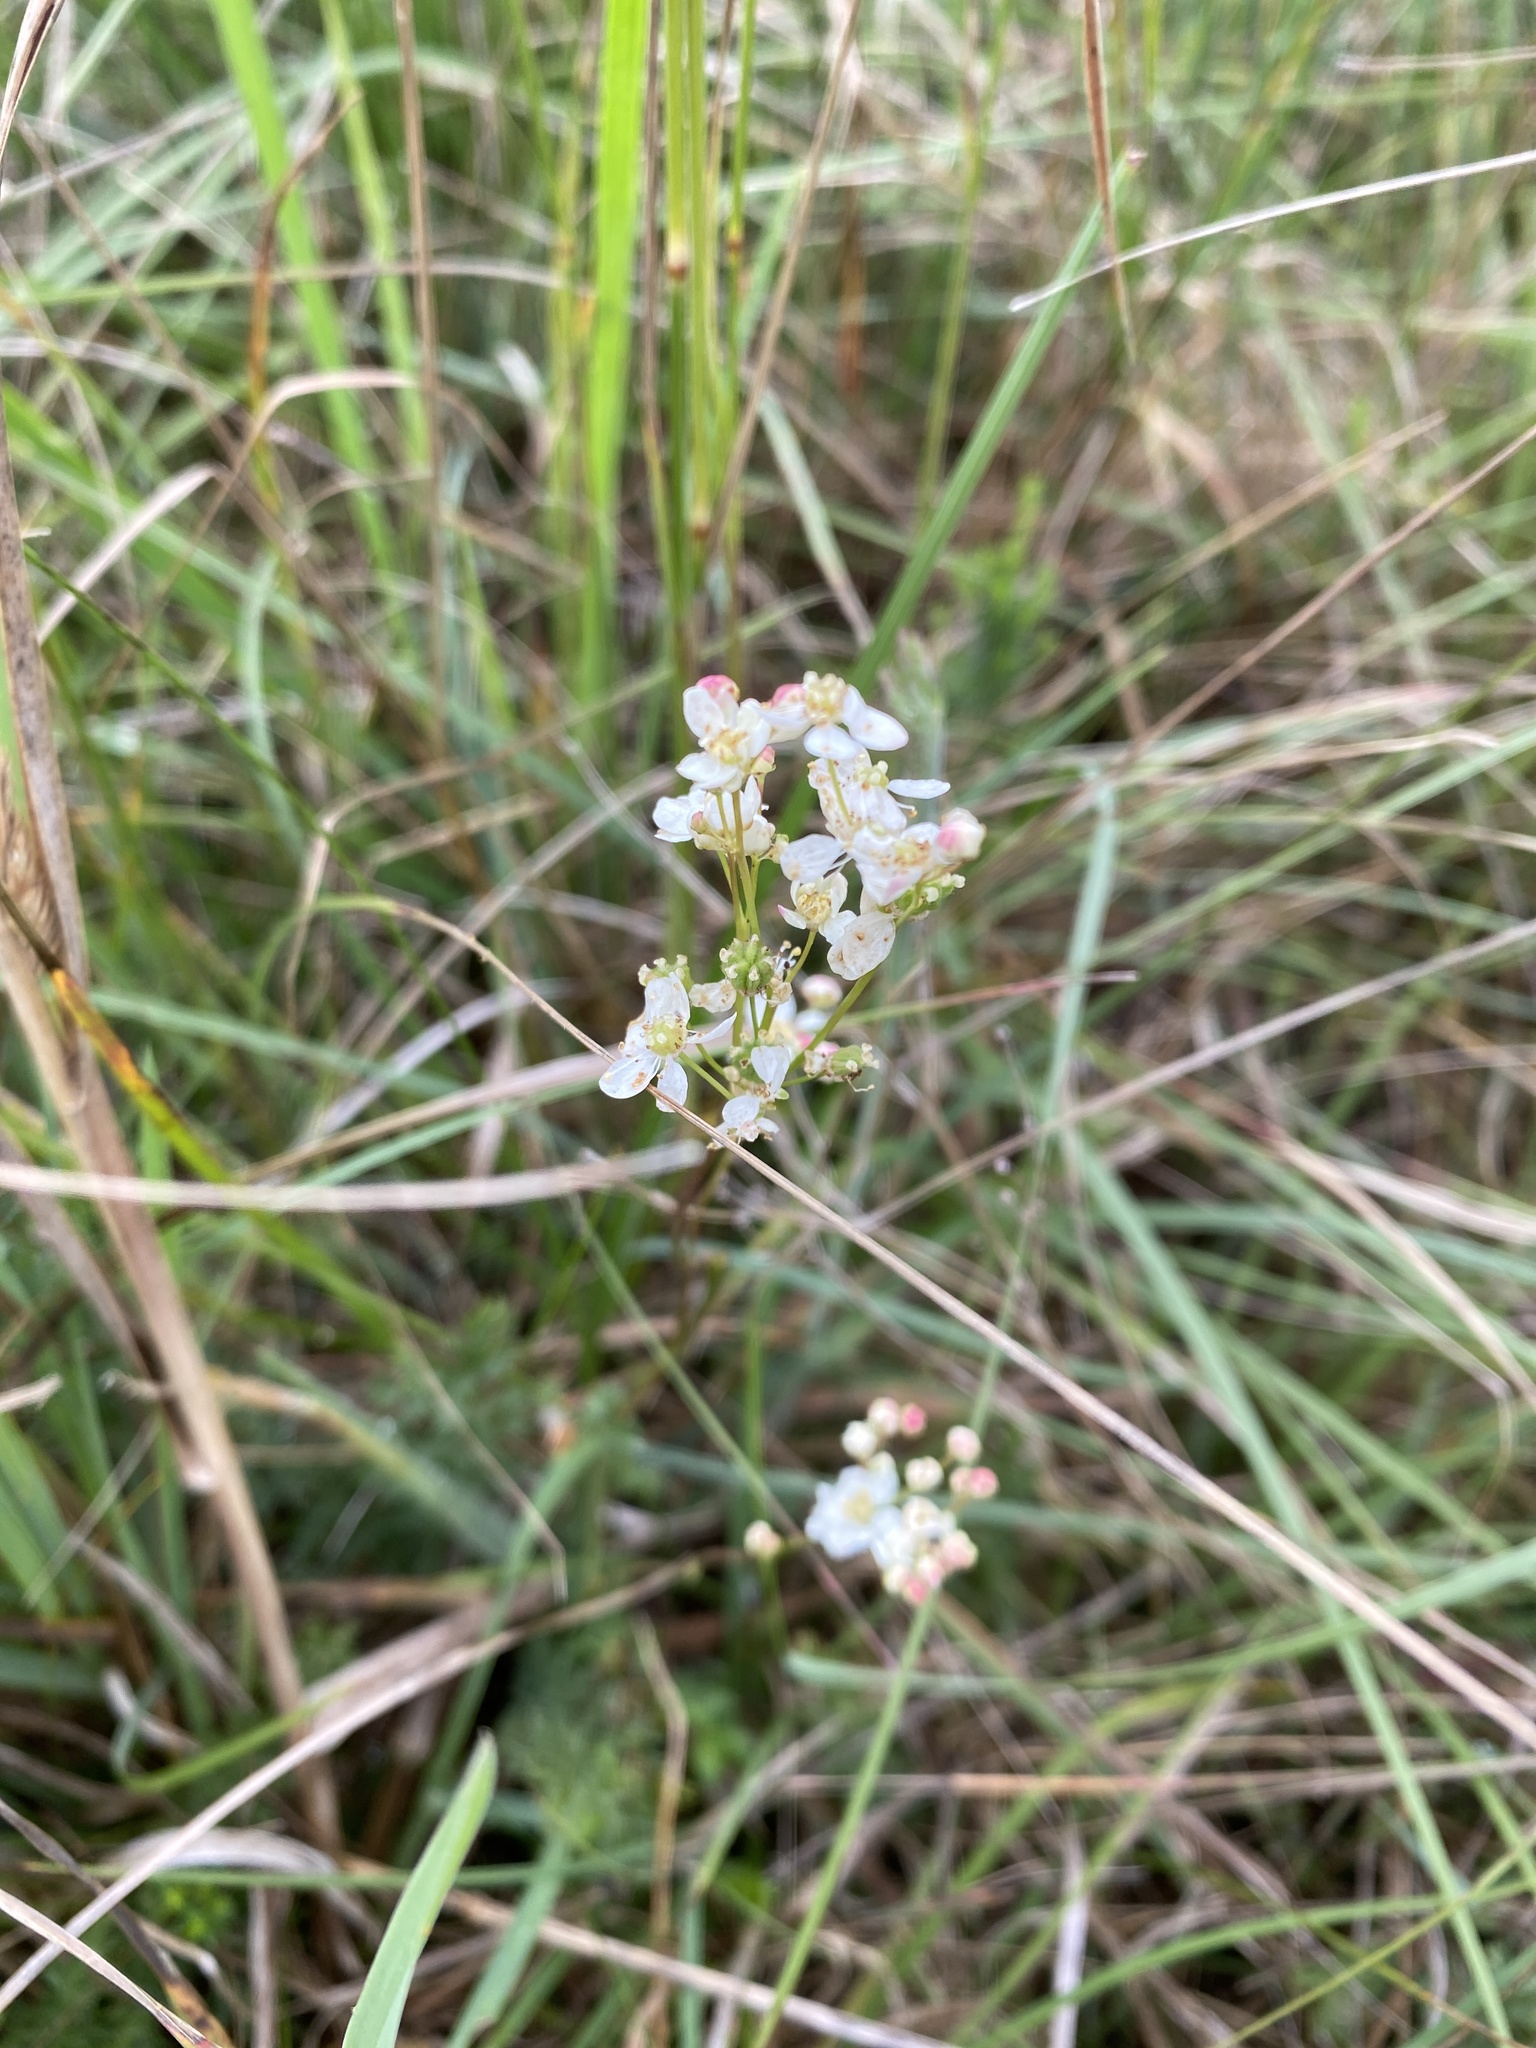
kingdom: Plantae
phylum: Tracheophyta
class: Magnoliopsida
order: Rosales
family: Rosaceae
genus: Filipendula
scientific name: Filipendula vulgaris
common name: Dropwort
